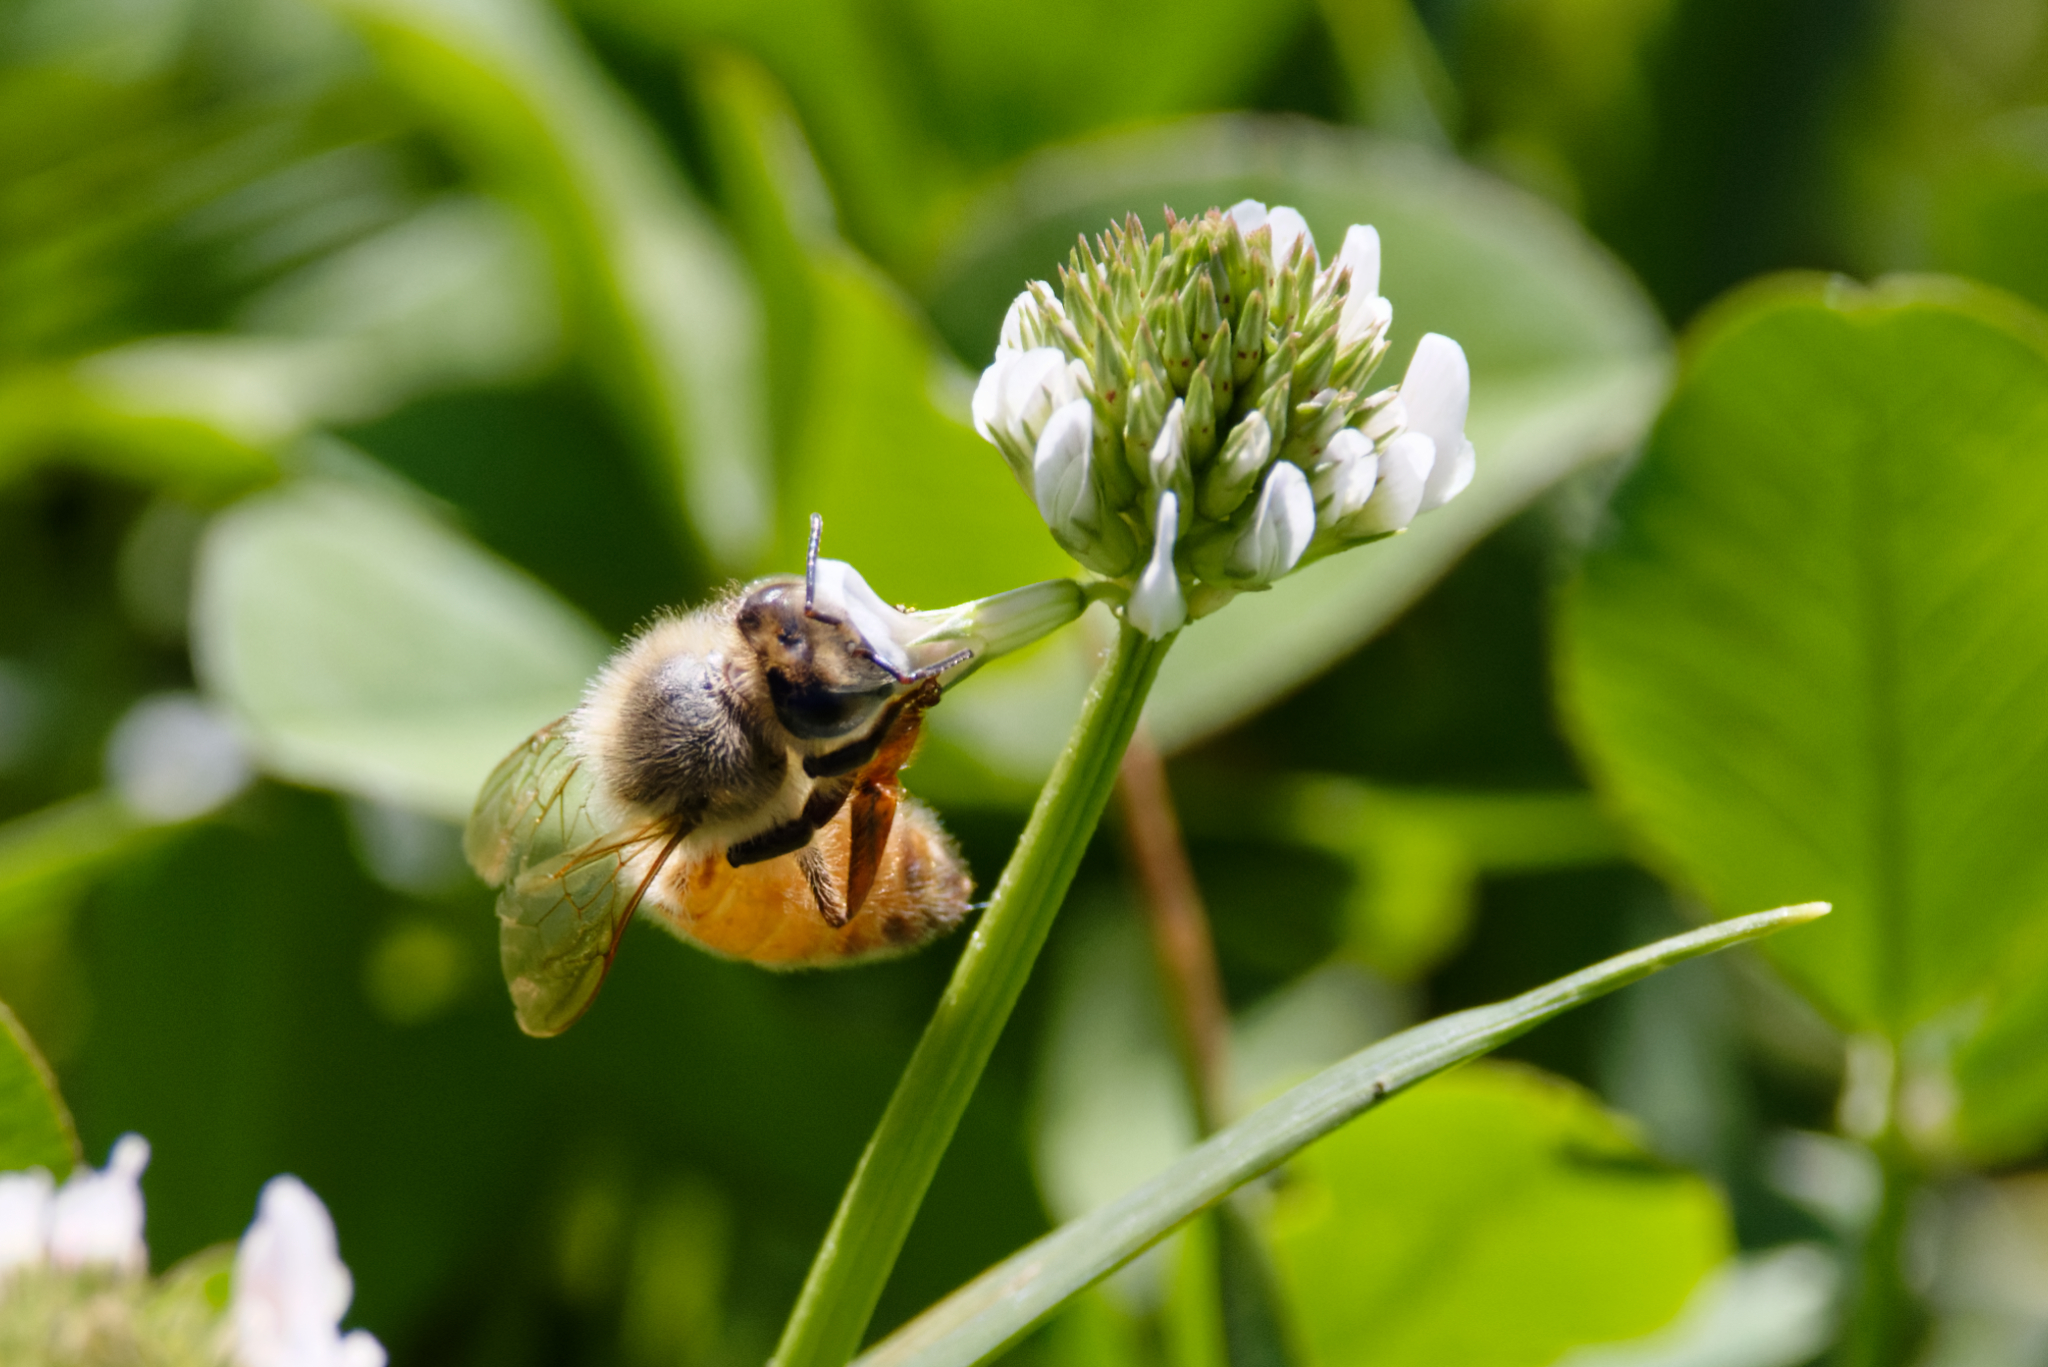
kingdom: Animalia
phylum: Arthropoda
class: Insecta
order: Hymenoptera
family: Apidae
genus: Apis
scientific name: Apis mellifera
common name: Honey bee
